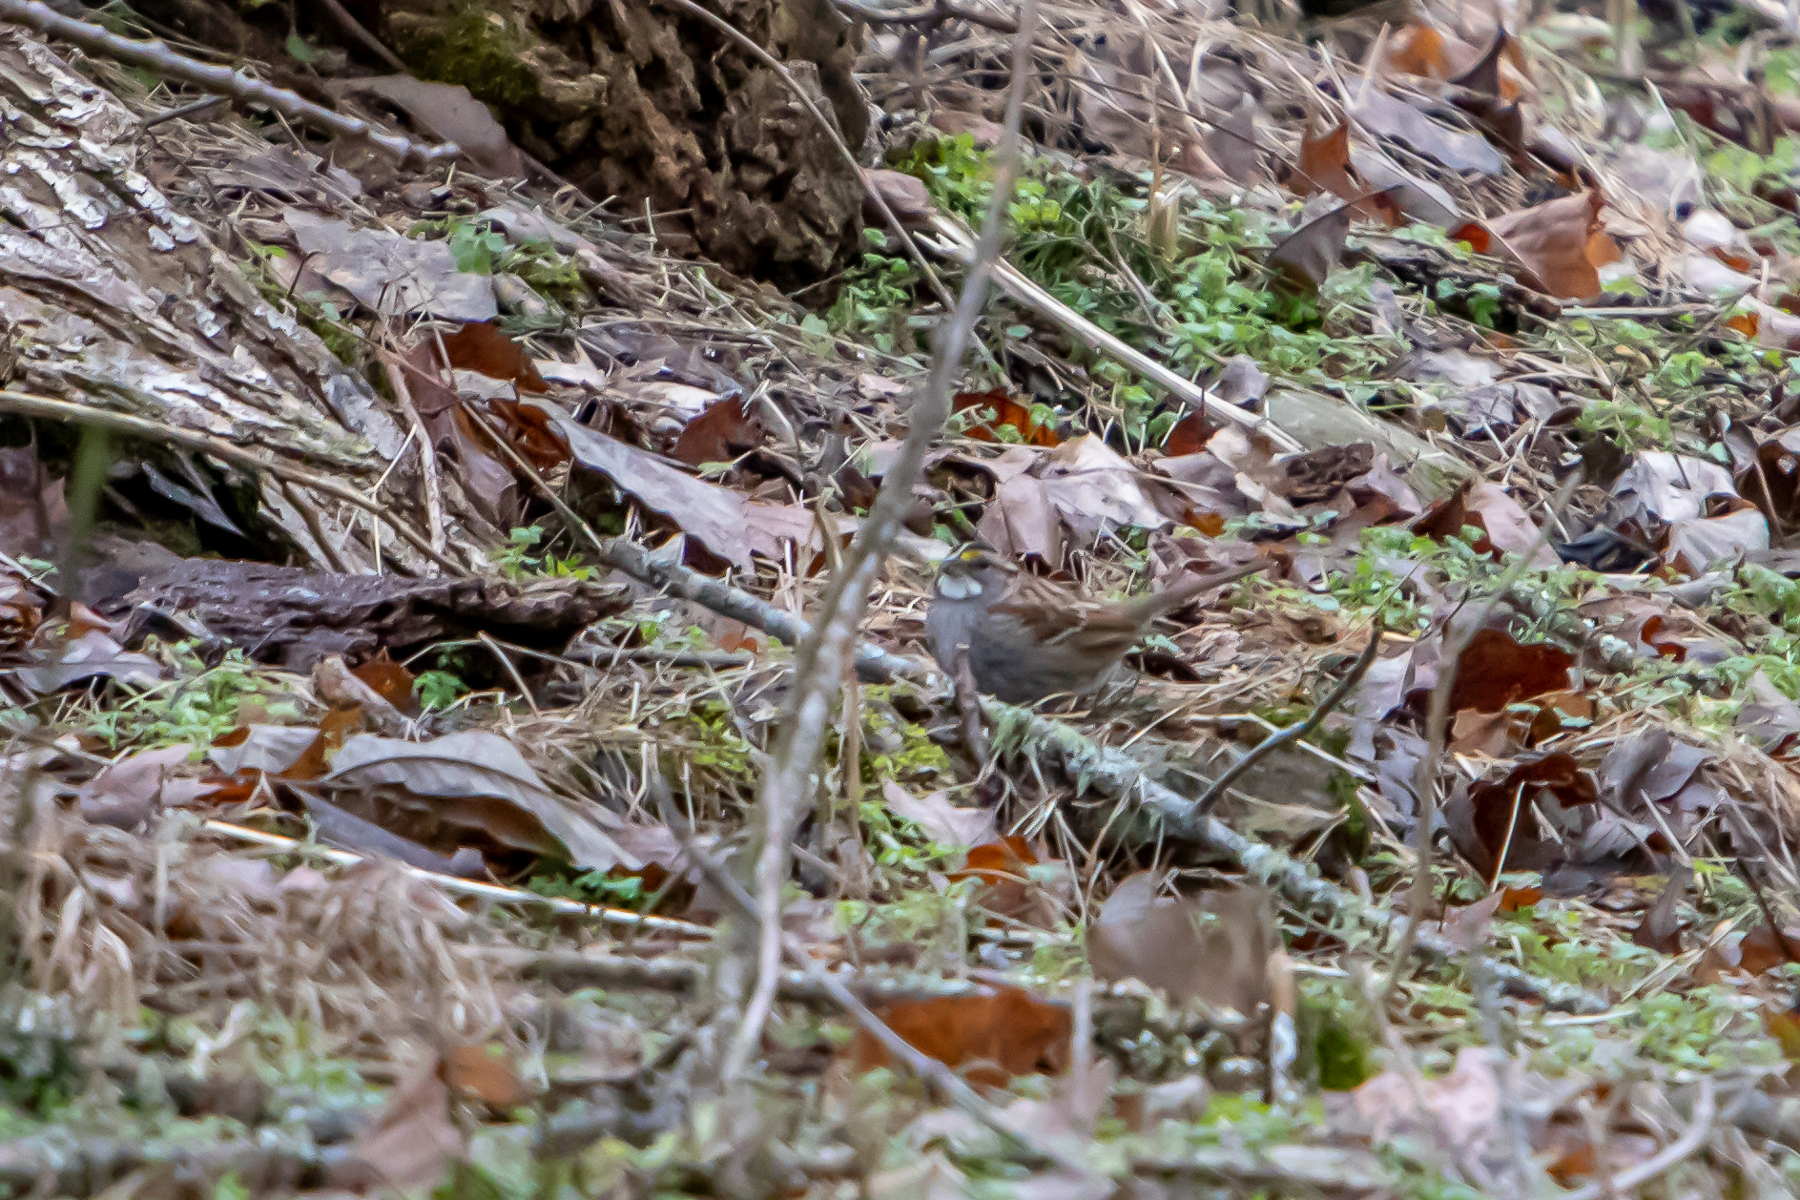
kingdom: Animalia
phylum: Chordata
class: Aves
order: Passeriformes
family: Passerellidae
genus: Zonotrichia
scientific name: Zonotrichia albicollis
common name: White-throated sparrow
